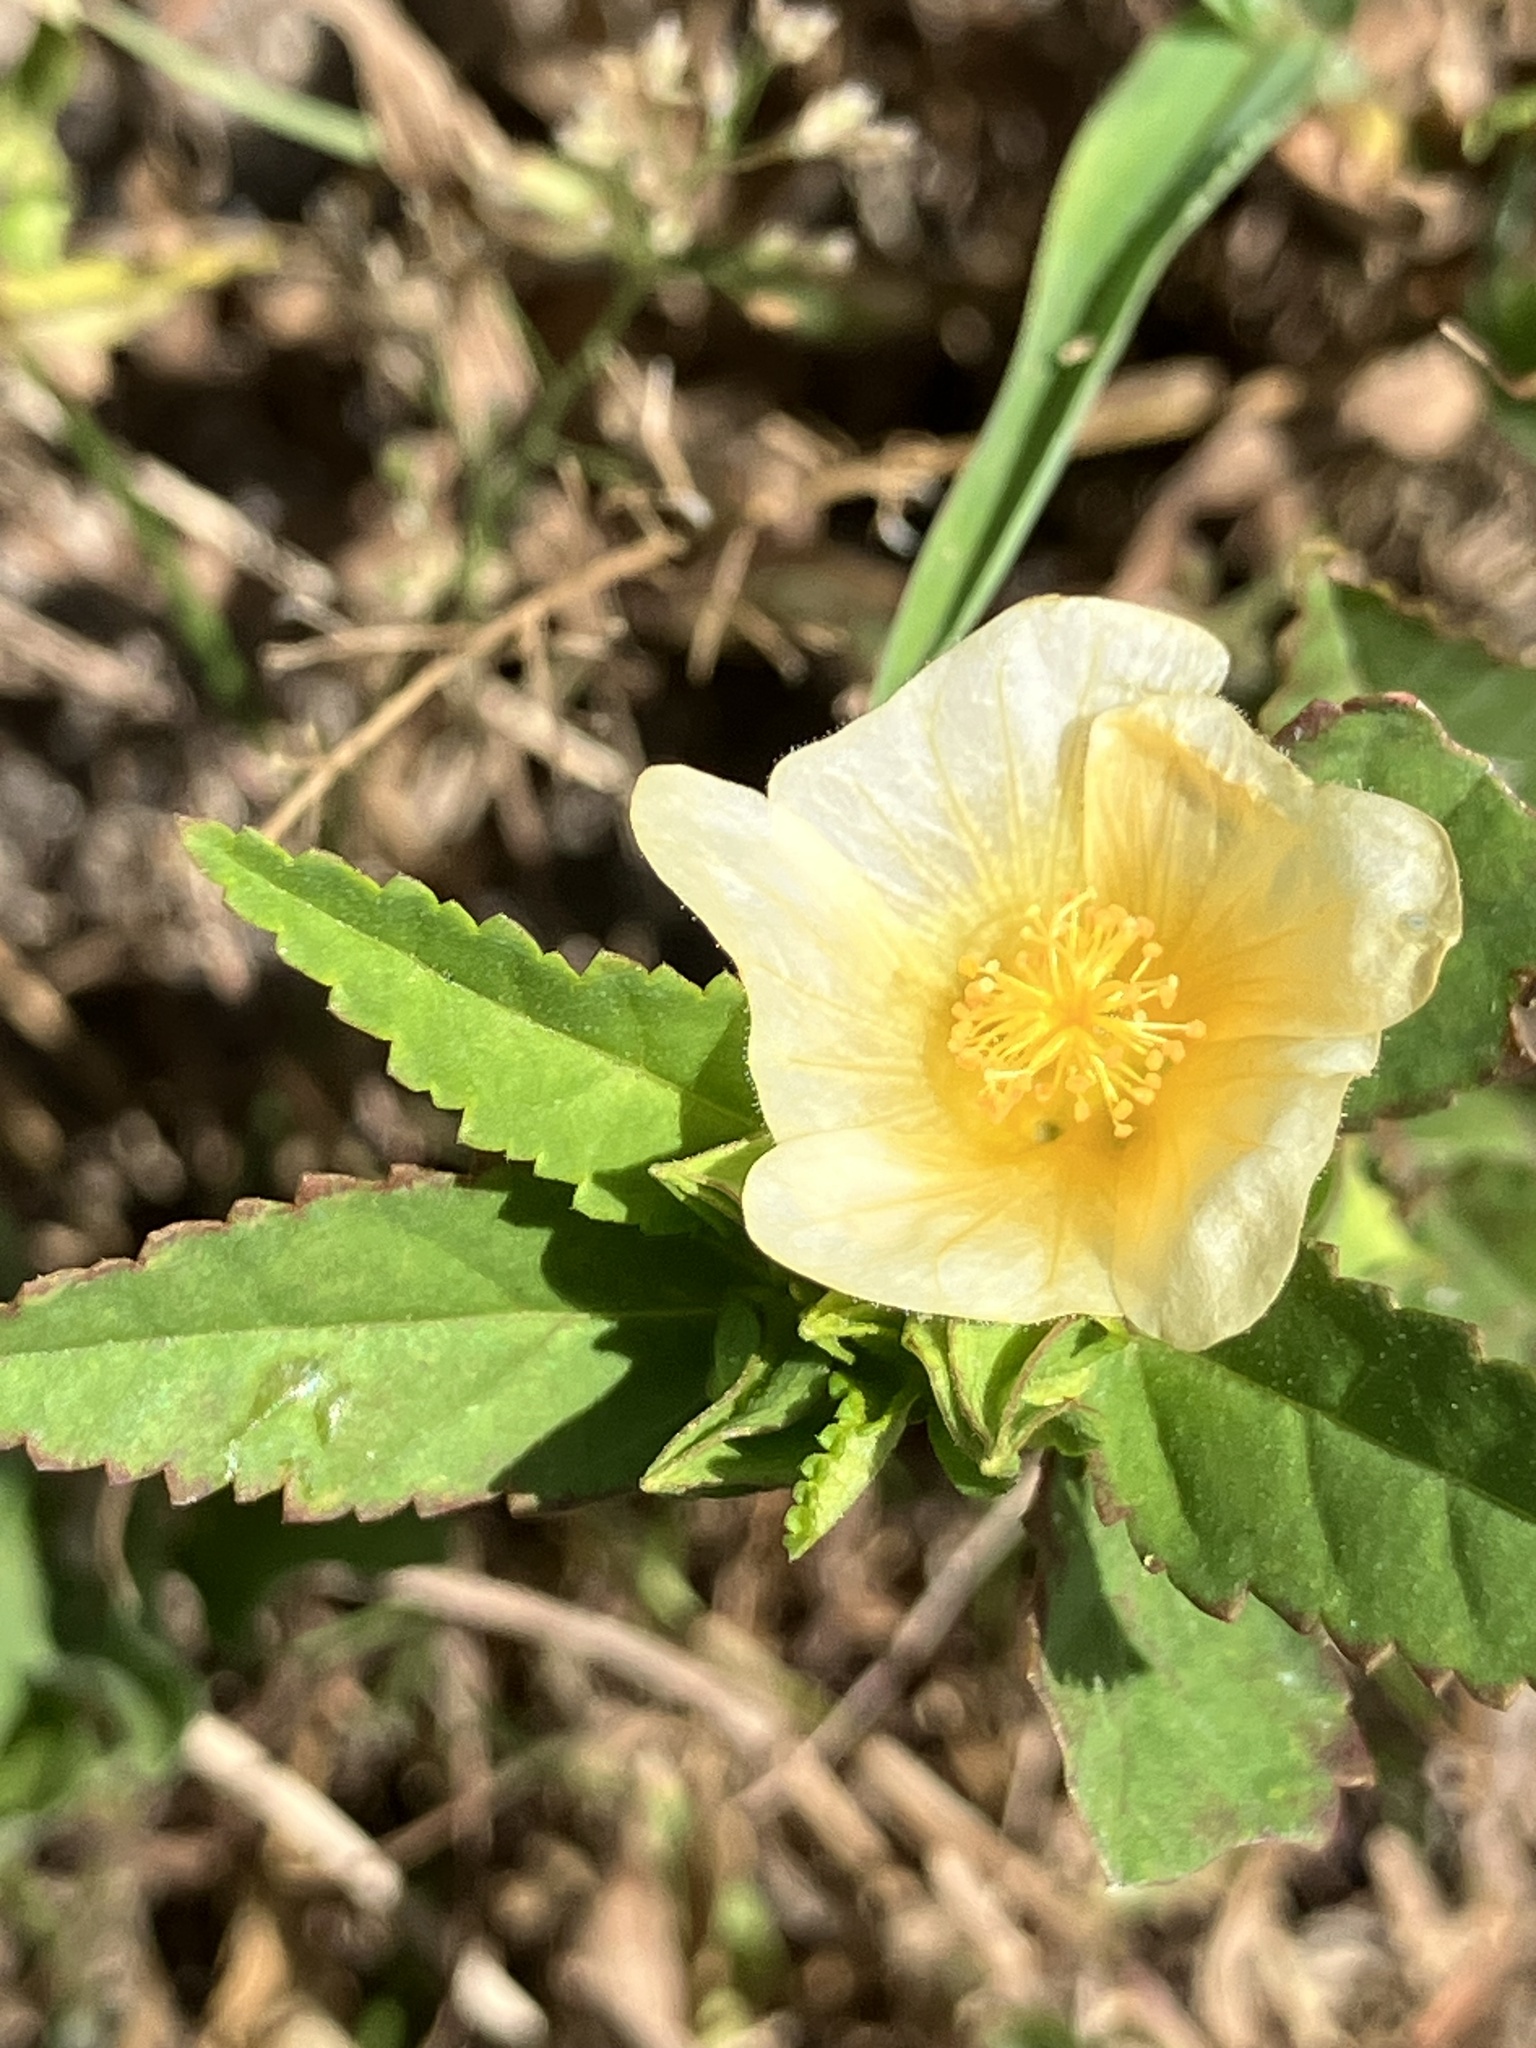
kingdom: Plantae
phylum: Tracheophyta
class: Magnoliopsida
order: Malvales
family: Malvaceae
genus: Sida
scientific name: Sida ulmifolia
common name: Broom weed
